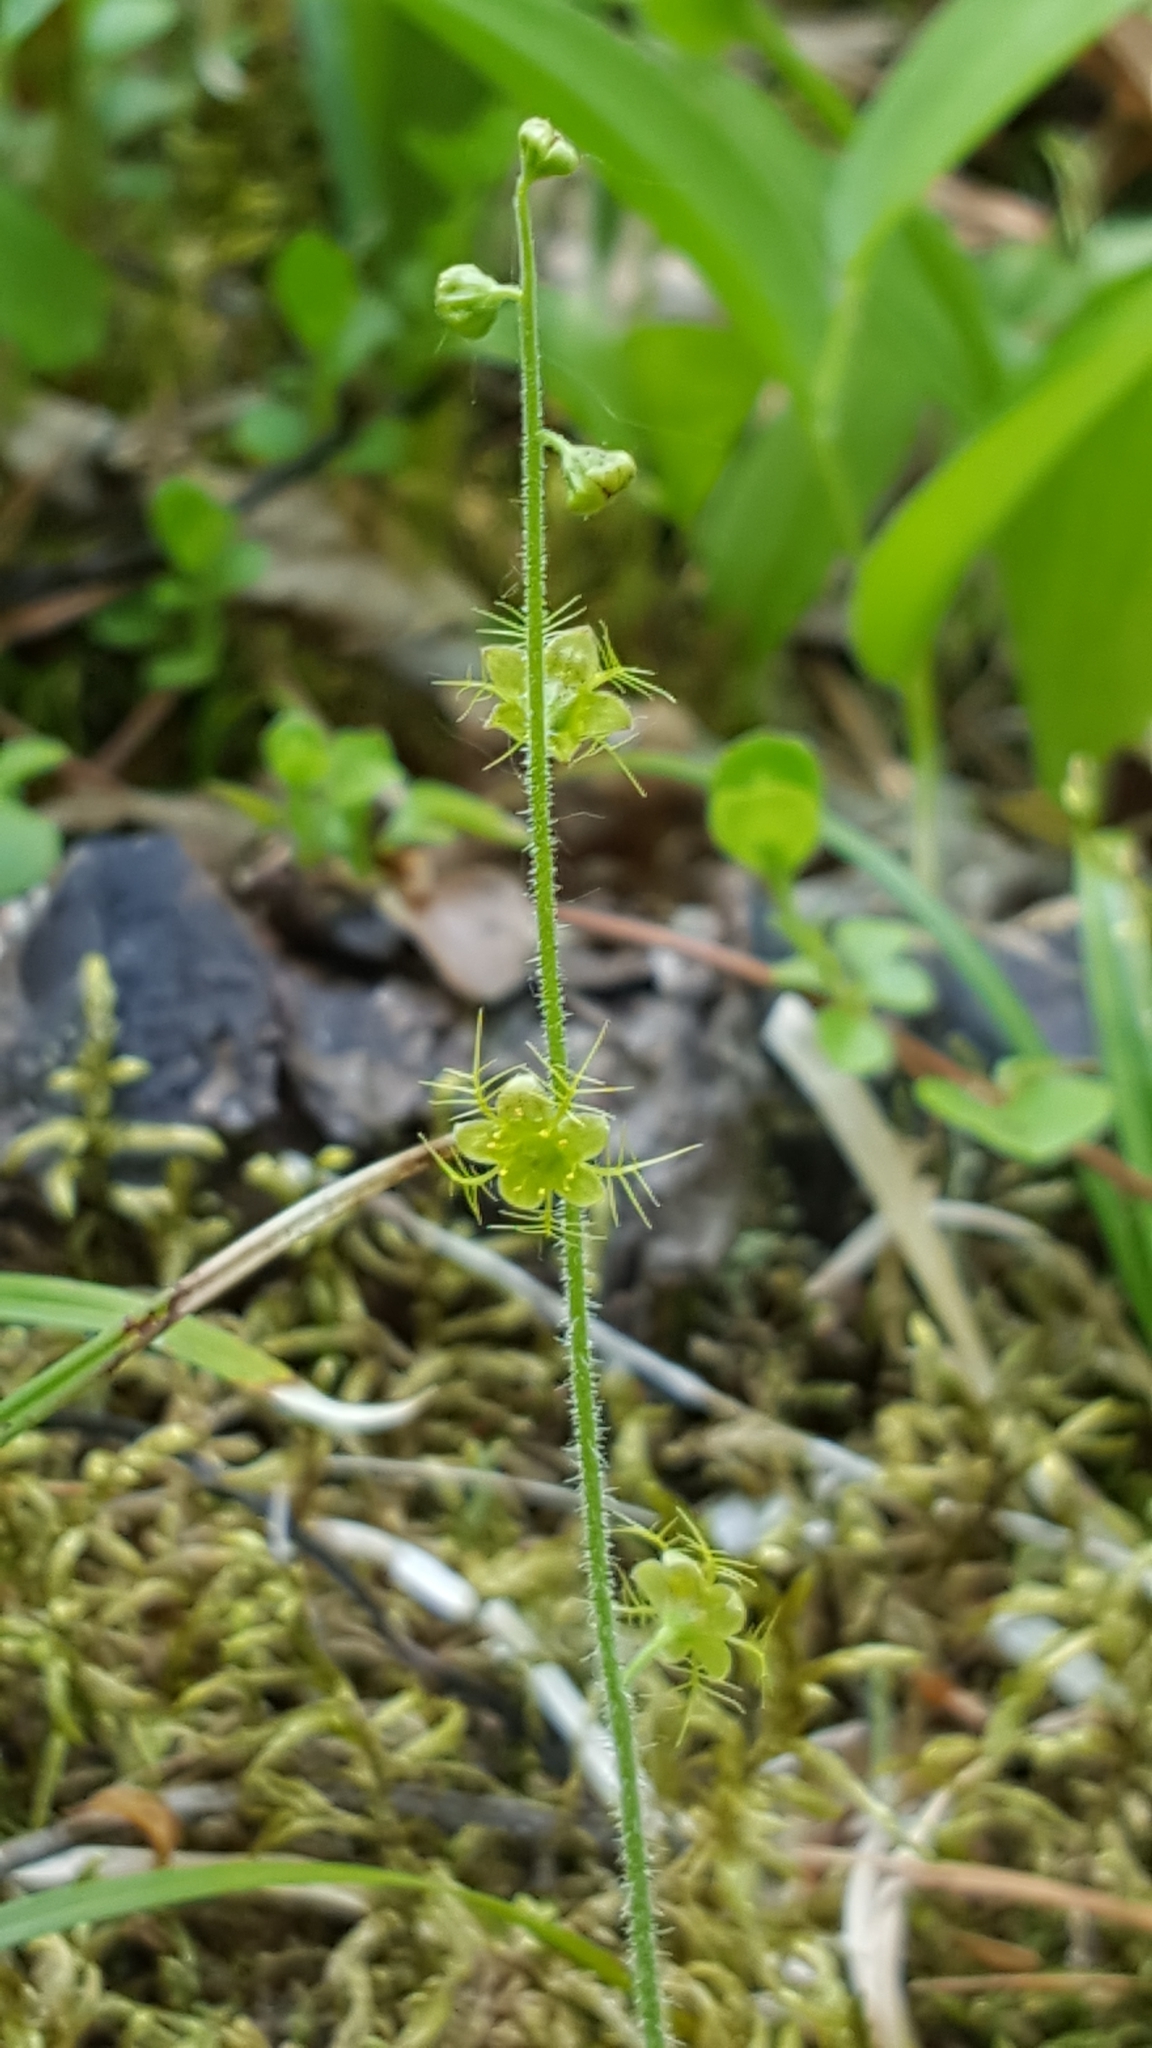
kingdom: Plantae
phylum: Tracheophyta
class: Magnoliopsida
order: Saxifragales
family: Saxifragaceae
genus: Mitella
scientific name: Mitella nuda
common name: Bare-stemmed bishop's-cap
